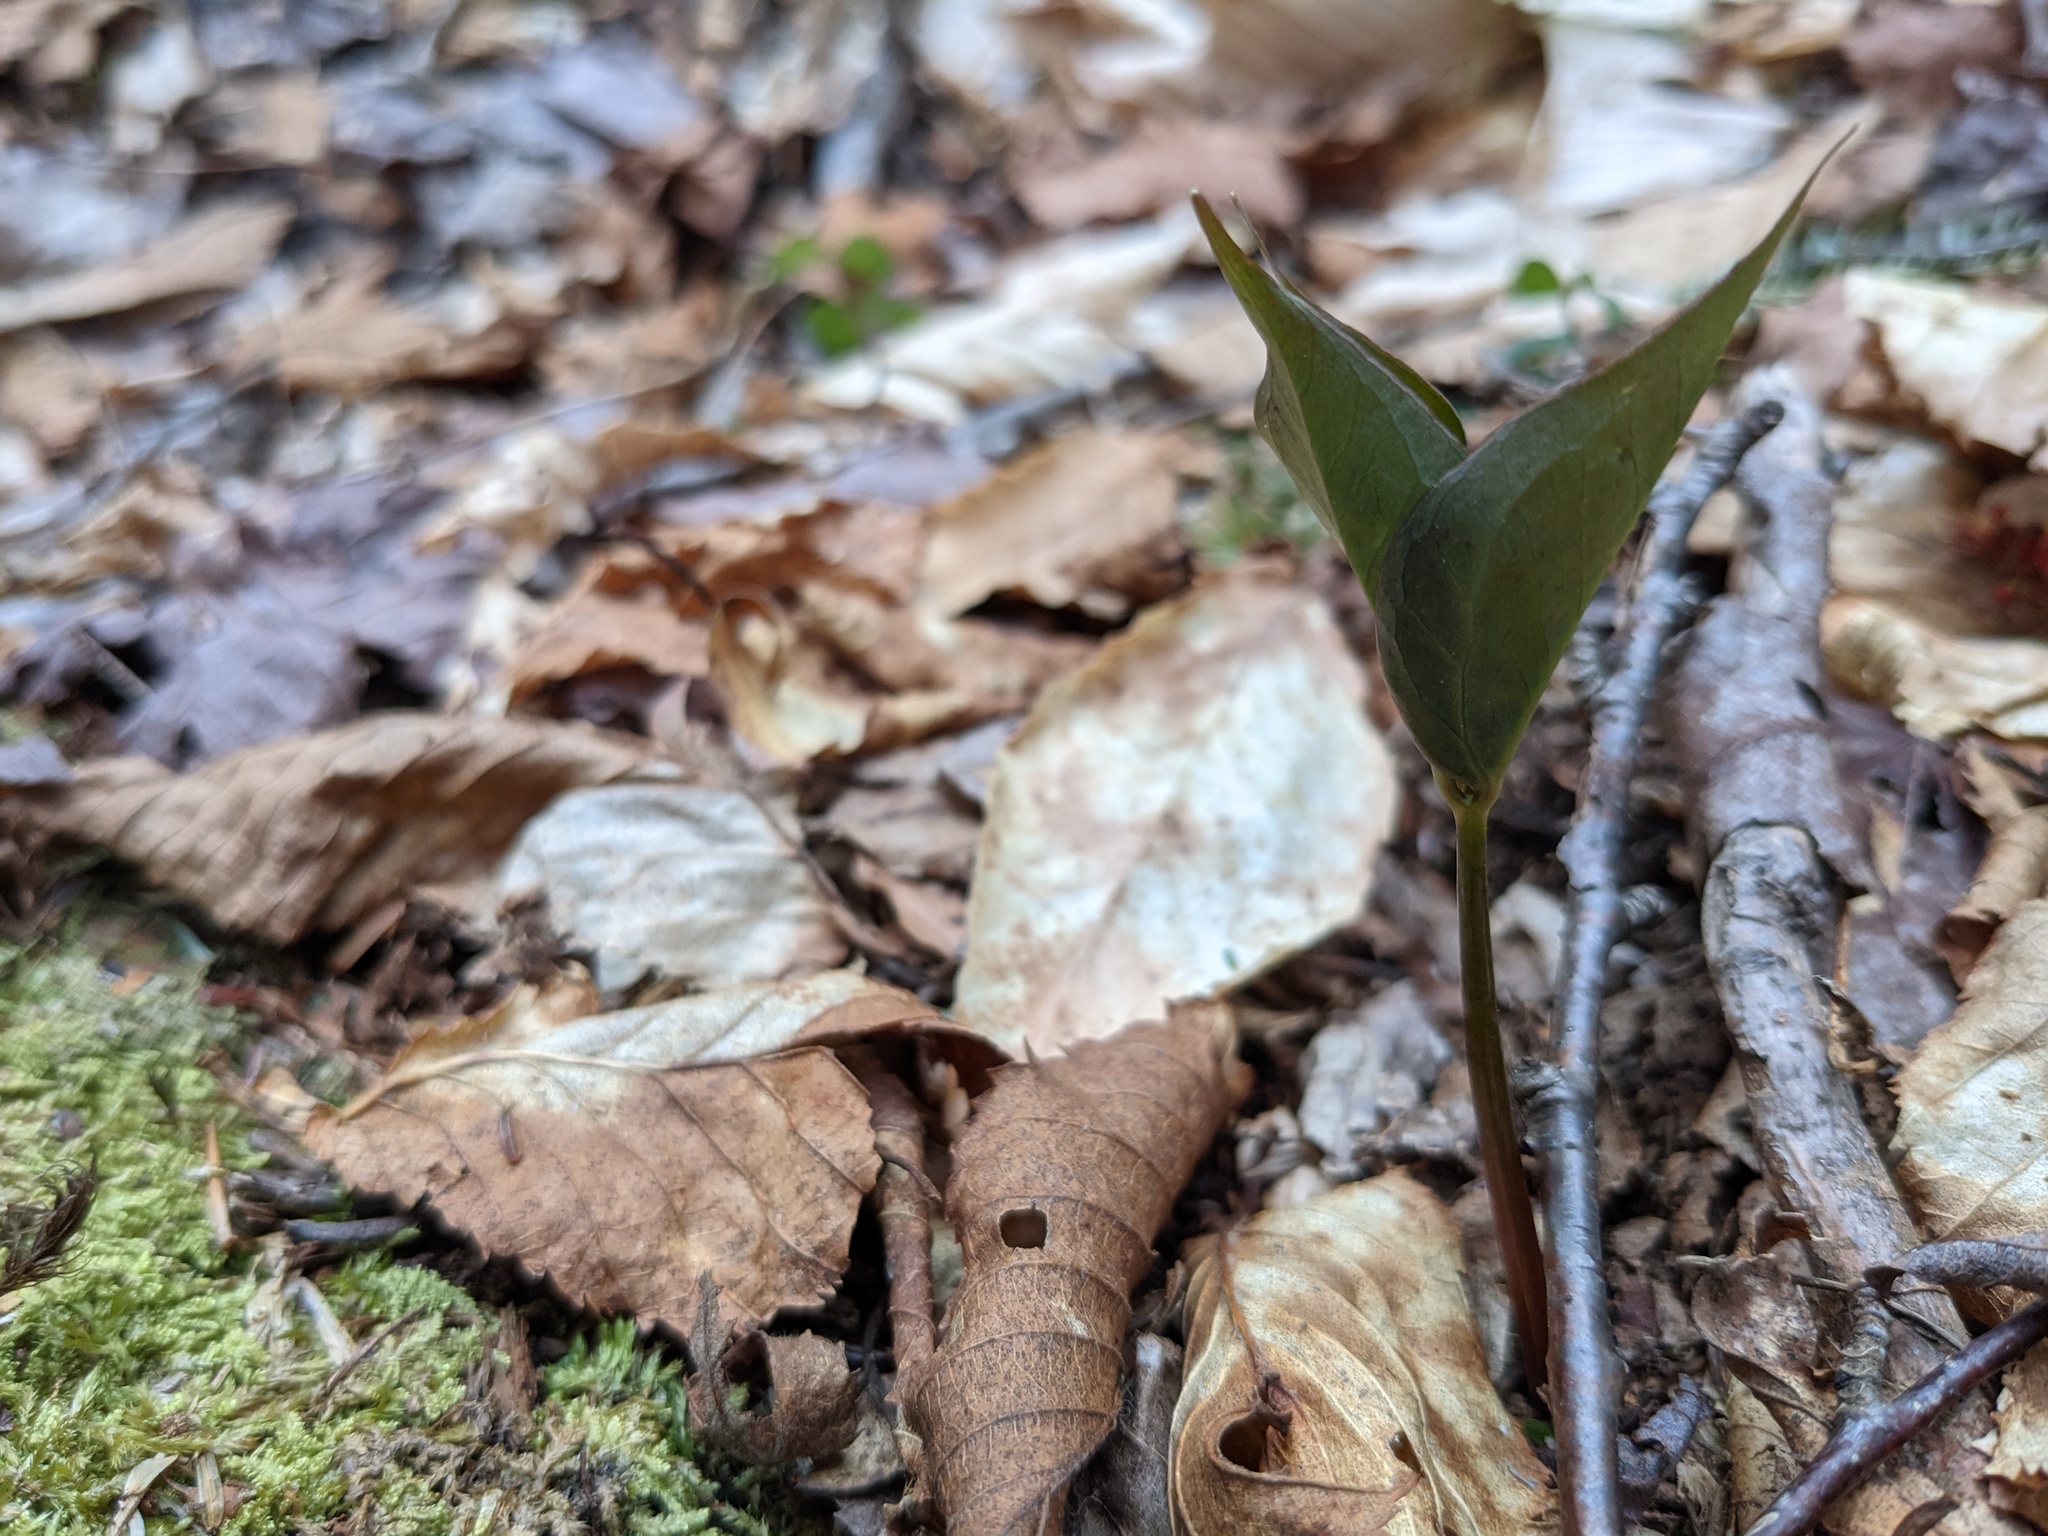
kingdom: Plantae
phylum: Tracheophyta
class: Liliopsida
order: Liliales
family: Melanthiaceae
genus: Trillium
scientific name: Trillium undulatum
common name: Paint trillium
